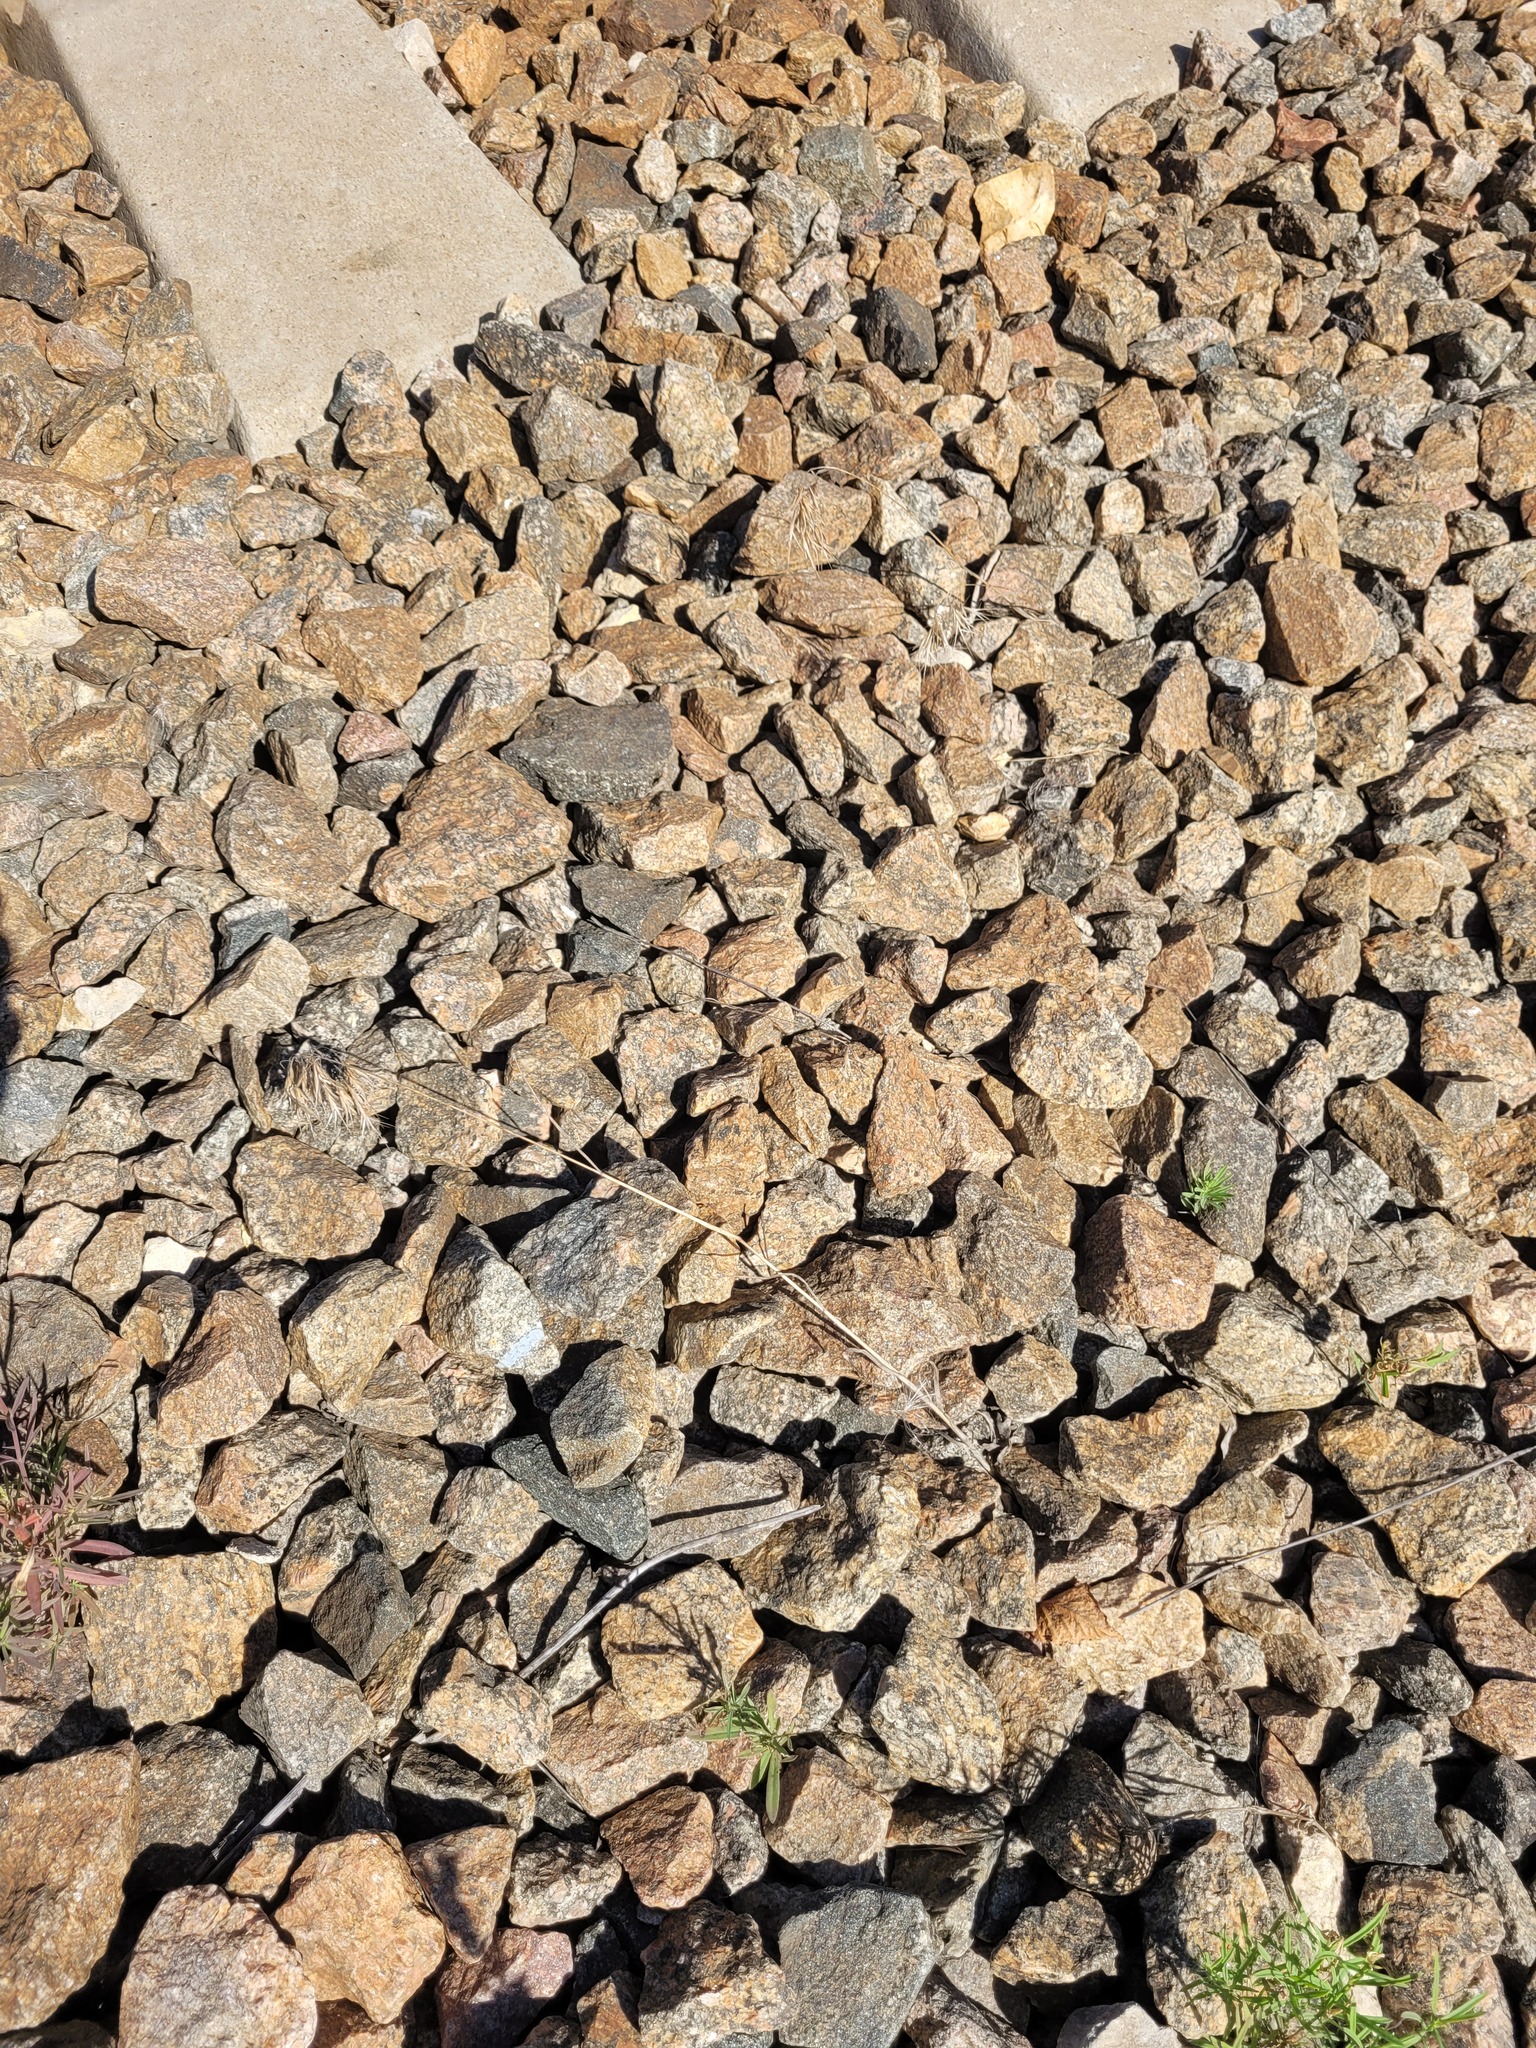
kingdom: Plantae
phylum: Tracheophyta
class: Liliopsida
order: Poales
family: Poaceae
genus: Bromus
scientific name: Bromus tectorum
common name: Cheatgrass
